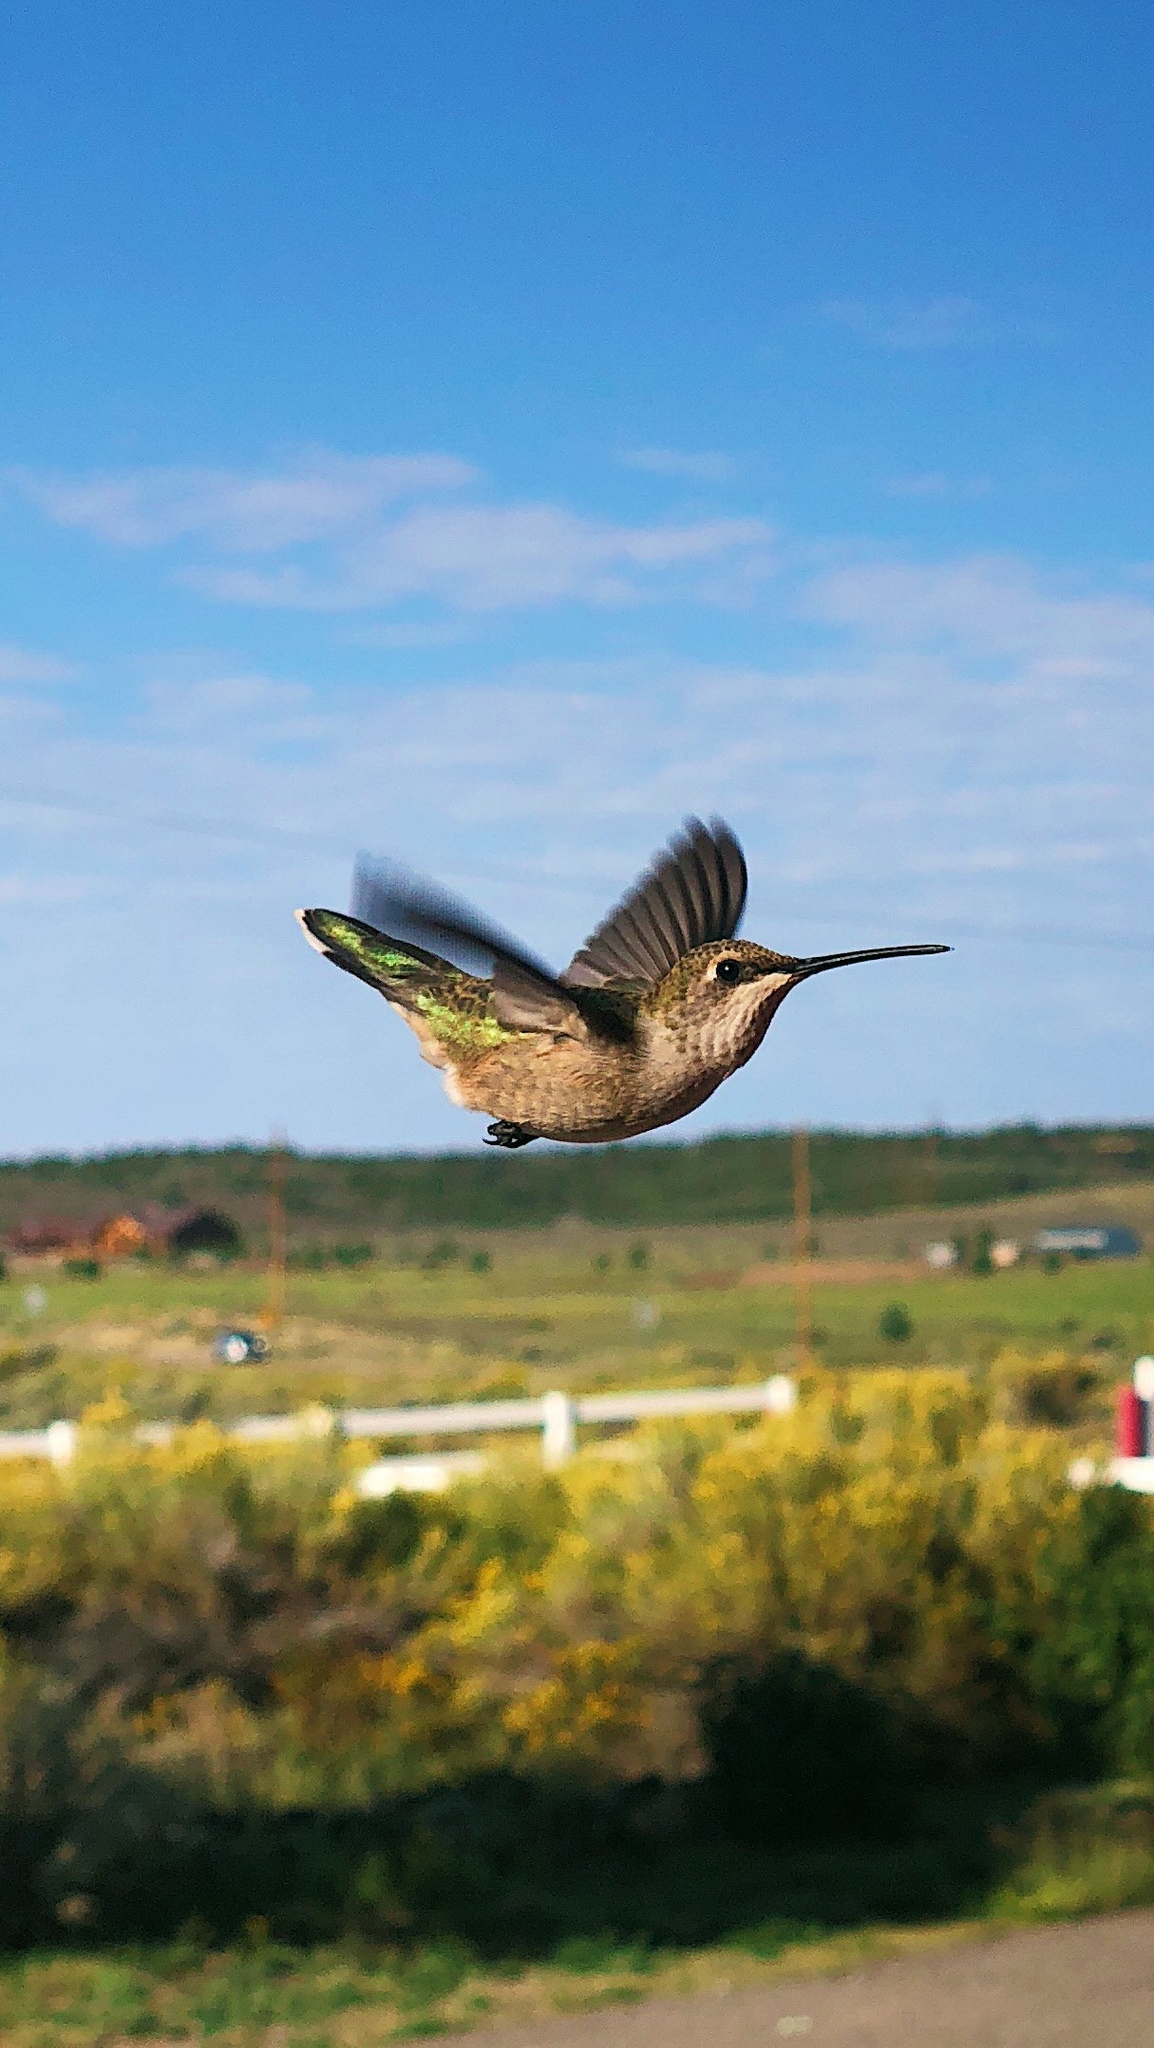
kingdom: Animalia
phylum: Chordata
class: Aves
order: Apodiformes
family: Trochilidae
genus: Calypte
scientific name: Calypte anna
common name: Anna's hummingbird
